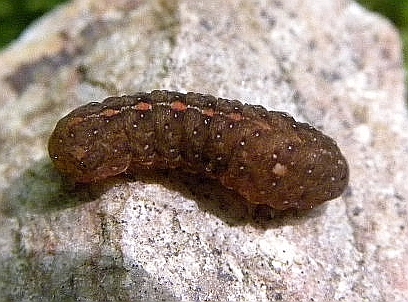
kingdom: Animalia
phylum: Arthropoda
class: Insecta
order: Lepidoptera
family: Noctuidae
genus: Elaphria
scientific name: Elaphria grata
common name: Grateful midget moth
